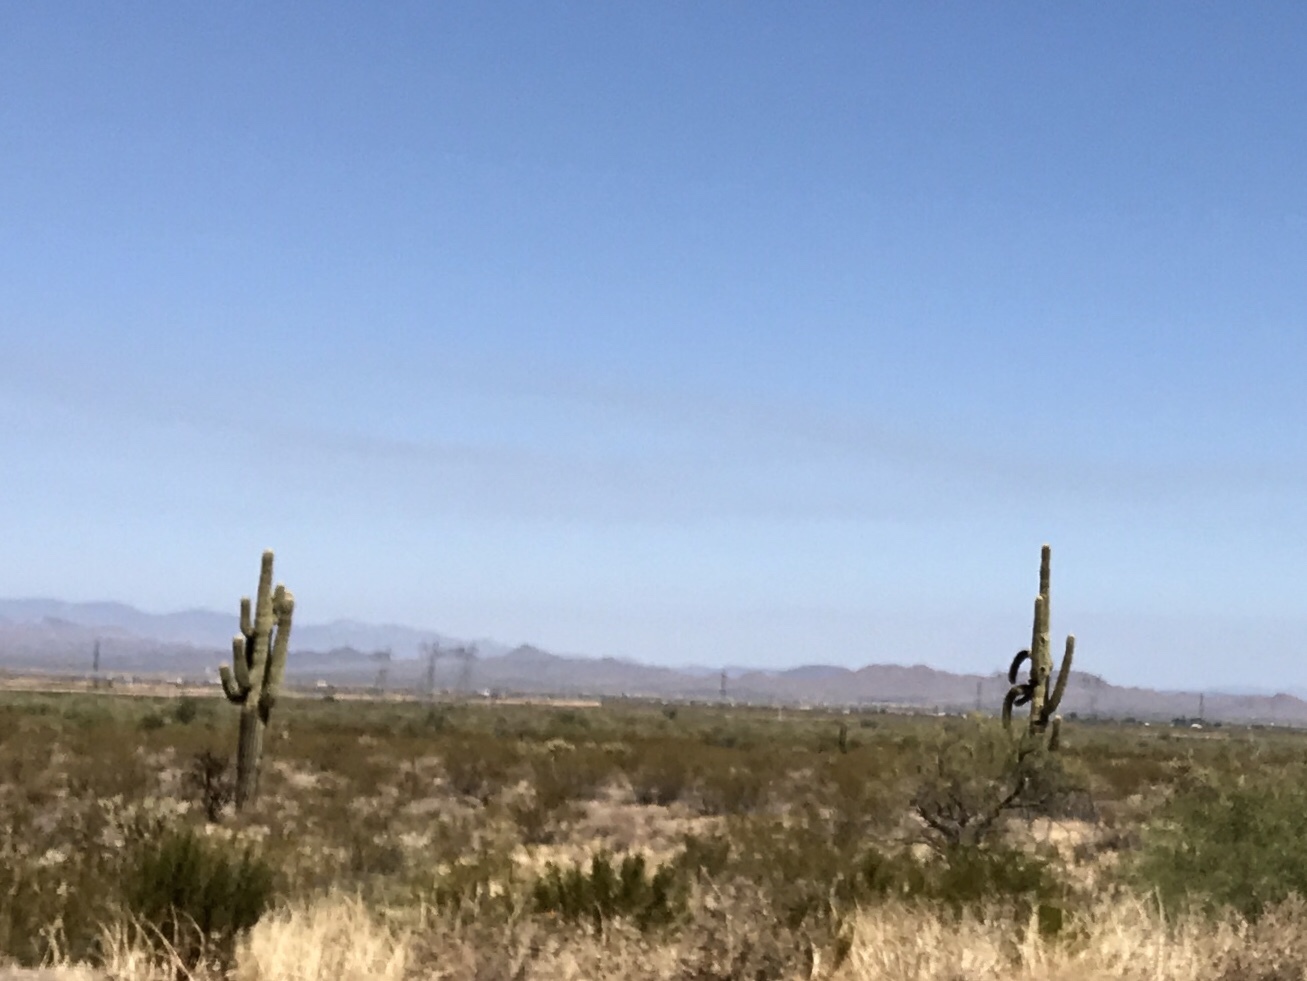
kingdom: Plantae
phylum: Tracheophyta
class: Magnoliopsida
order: Caryophyllales
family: Cactaceae
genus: Carnegiea
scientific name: Carnegiea gigantea
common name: Saguaro
